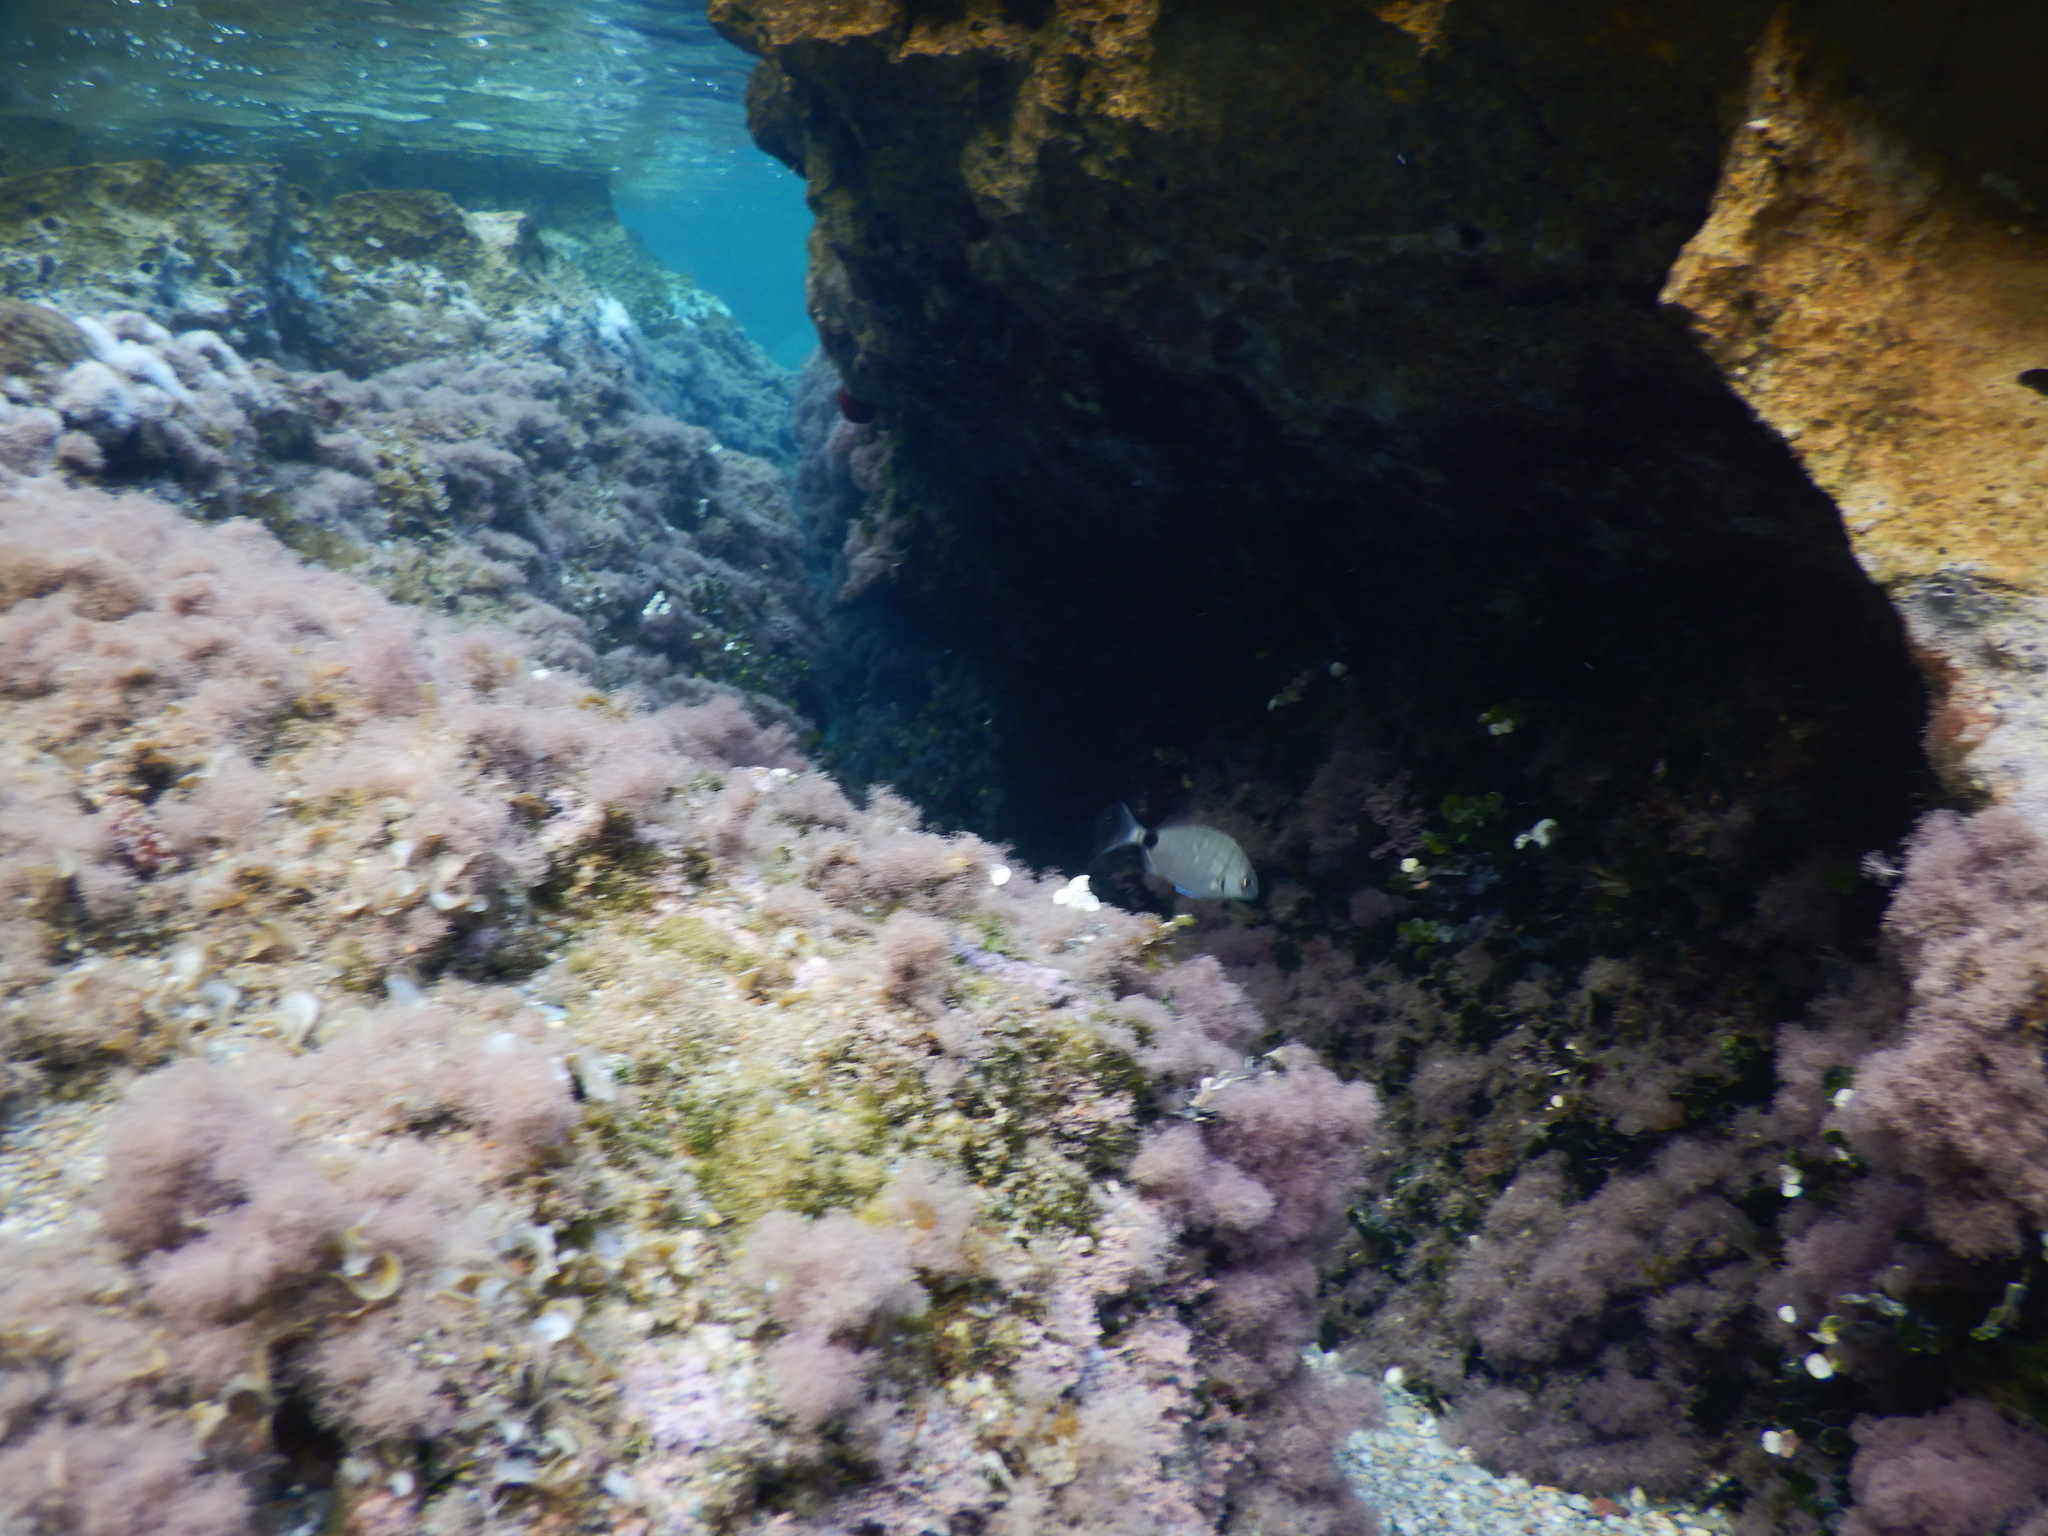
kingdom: Animalia
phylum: Chordata
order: Perciformes
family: Sparidae
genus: Diplodus
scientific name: Diplodus sargus
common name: White seabream
